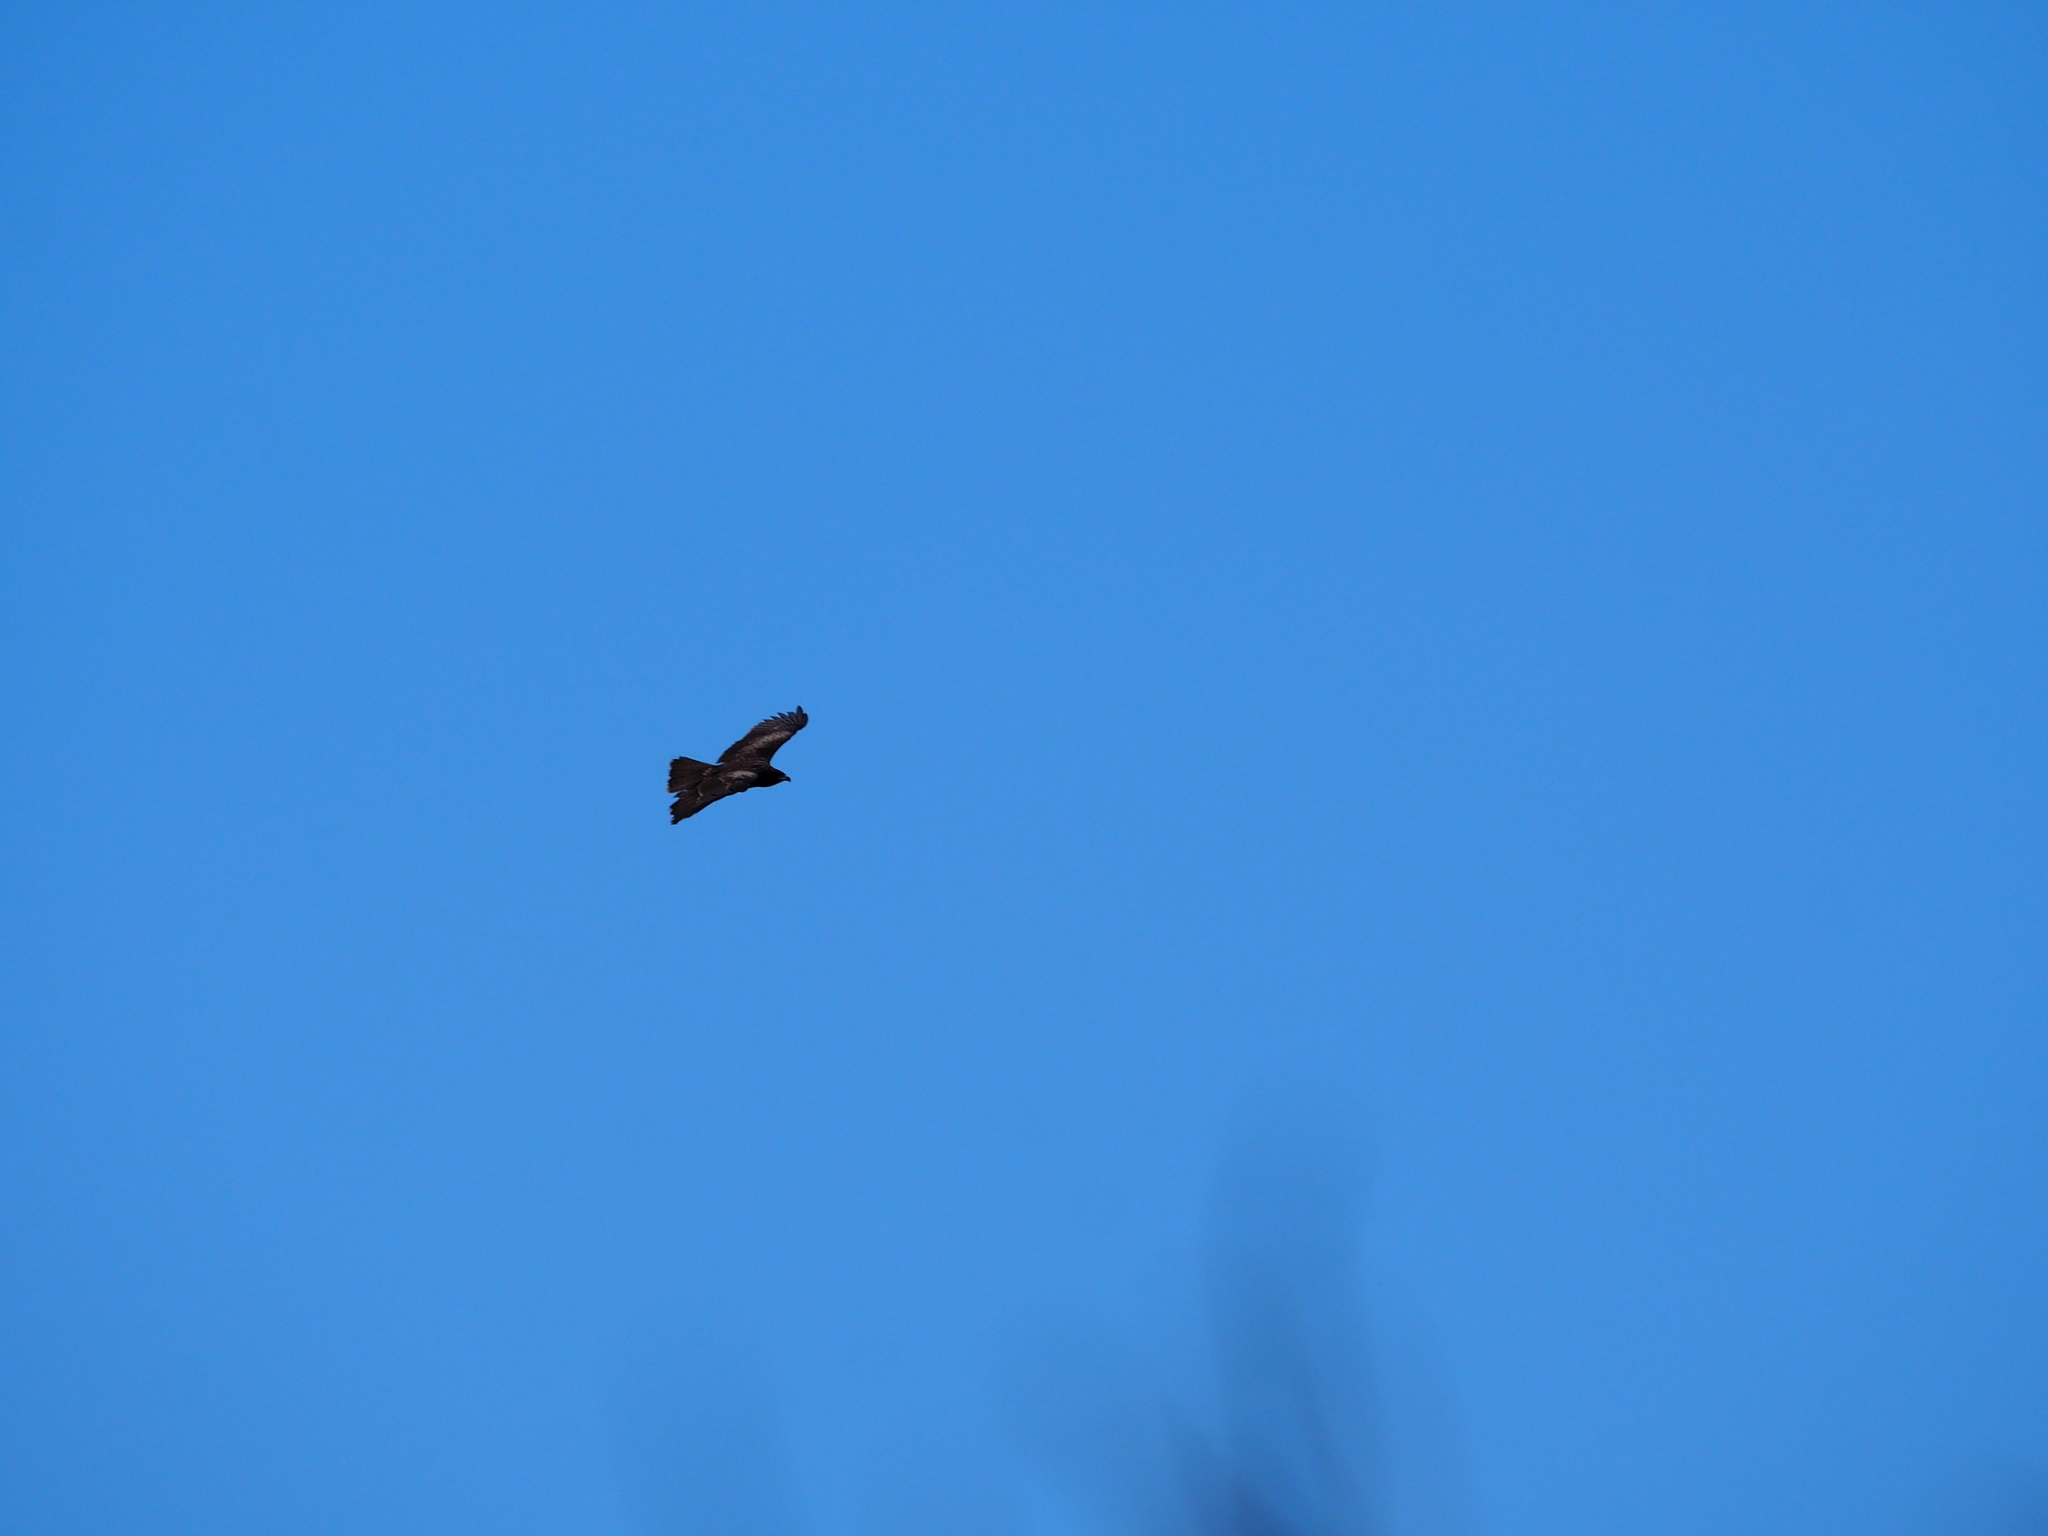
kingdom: Animalia
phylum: Chordata
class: Aves
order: Accipitriformes
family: Accipitridae
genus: Milvus
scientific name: Milvus migrans
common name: Black kite
